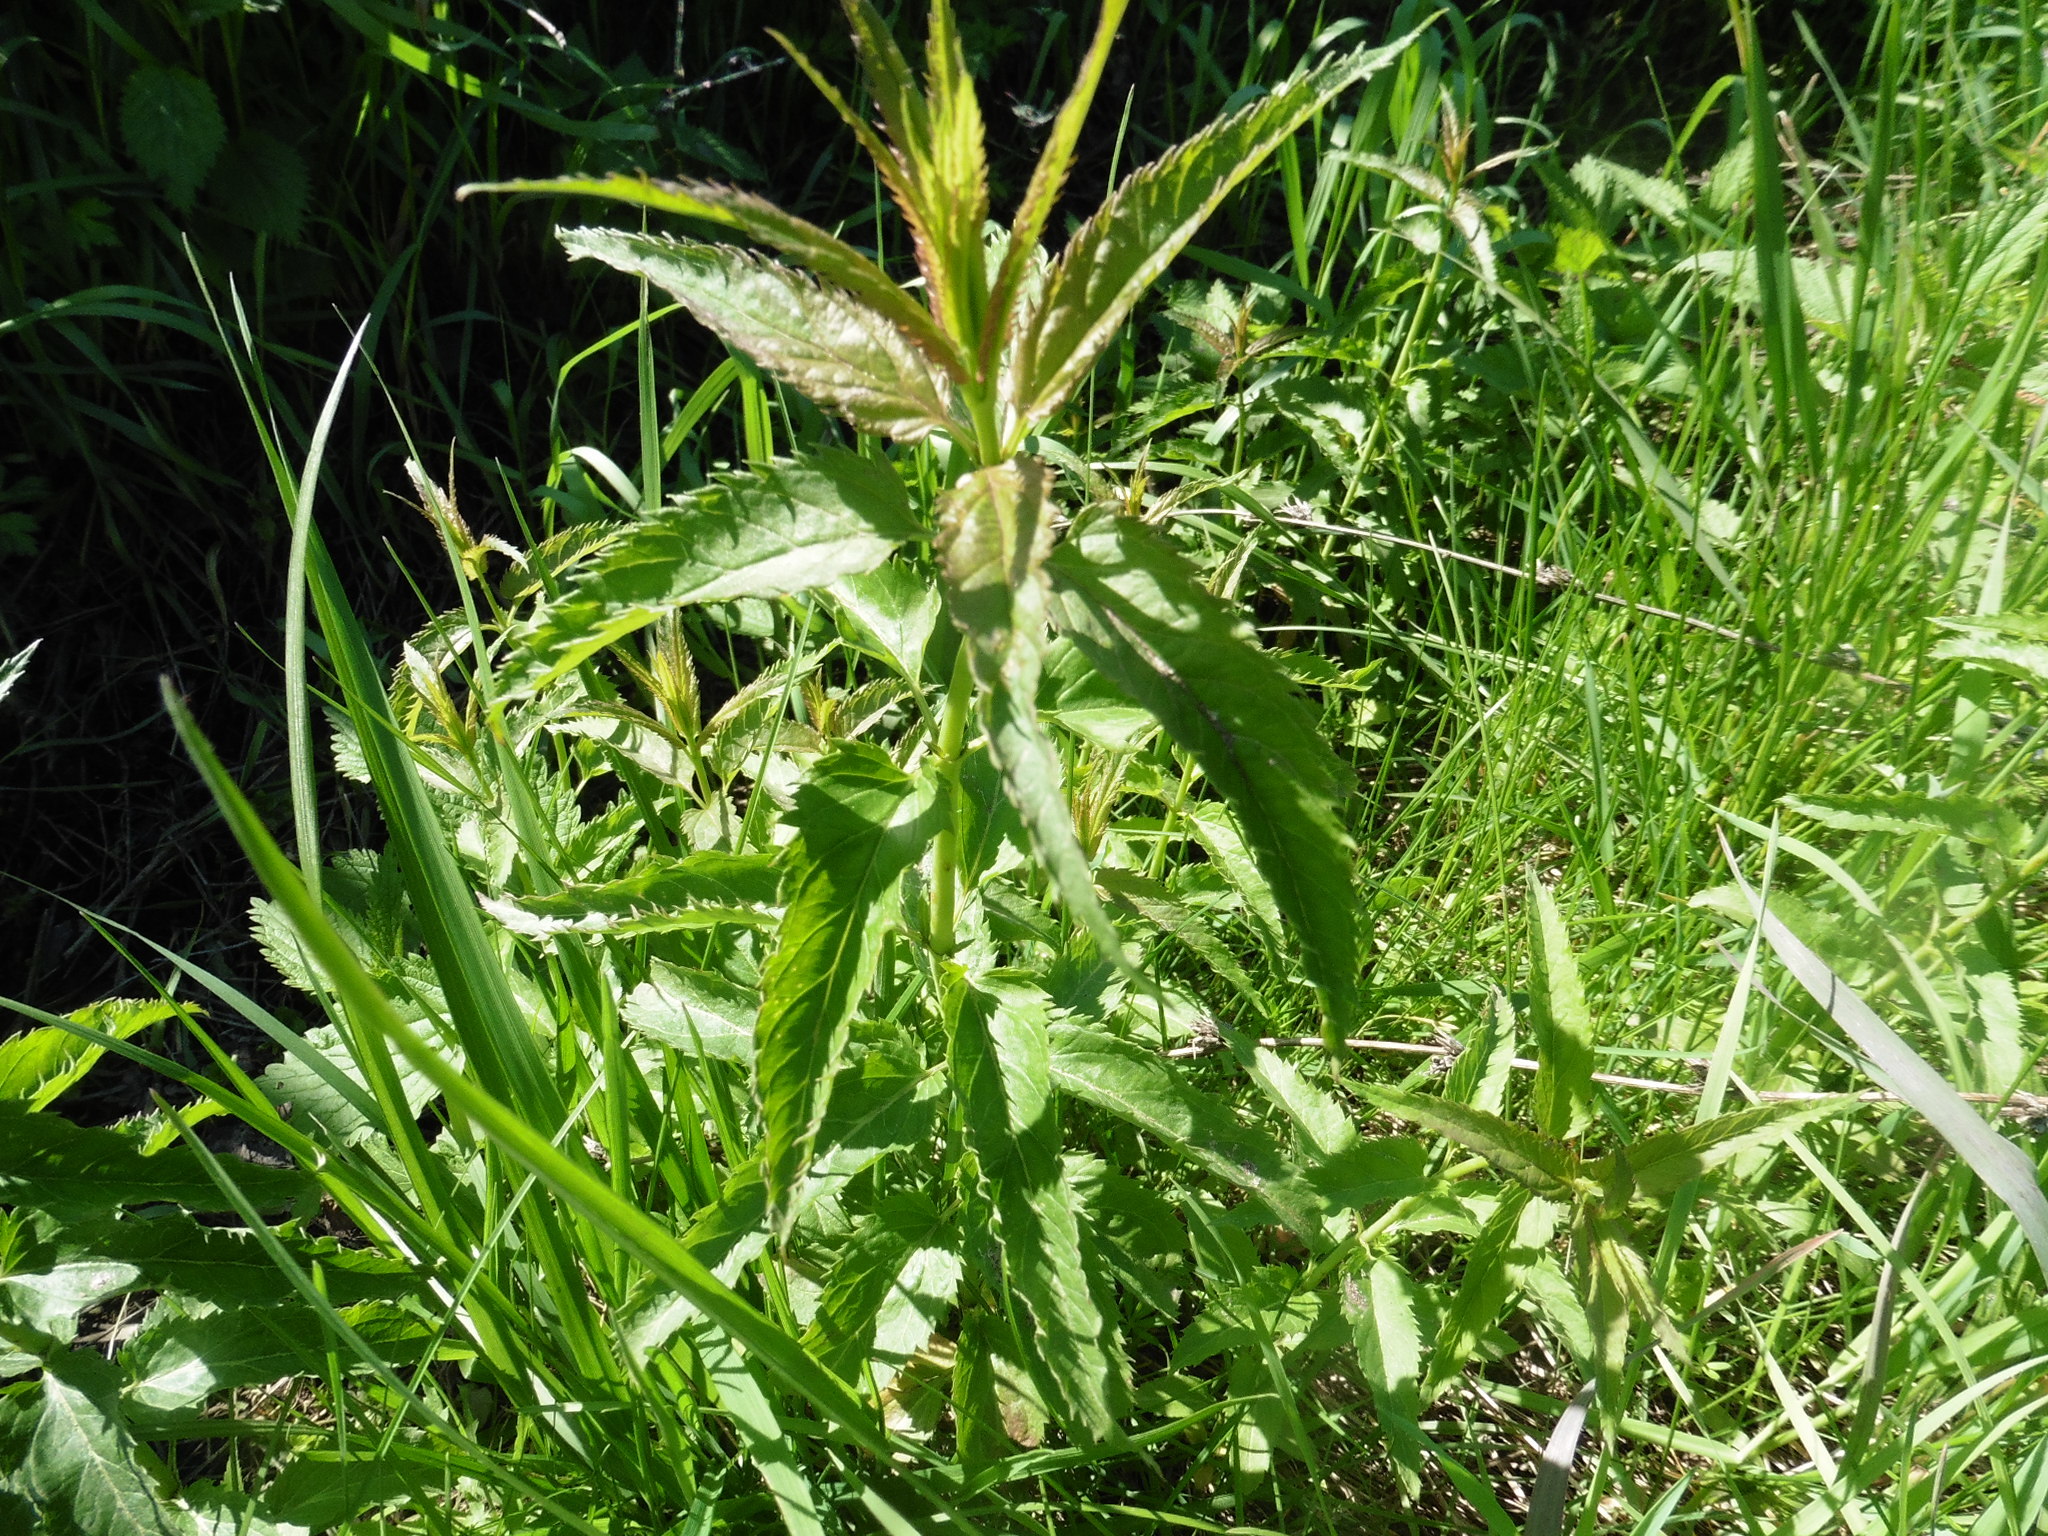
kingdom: Plantae
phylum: Tracheophyta
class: Magnoliopsida
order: Lamiales
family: Plantaginaceae
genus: Veronica
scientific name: Veronica longifolia
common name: Garden speedwell
